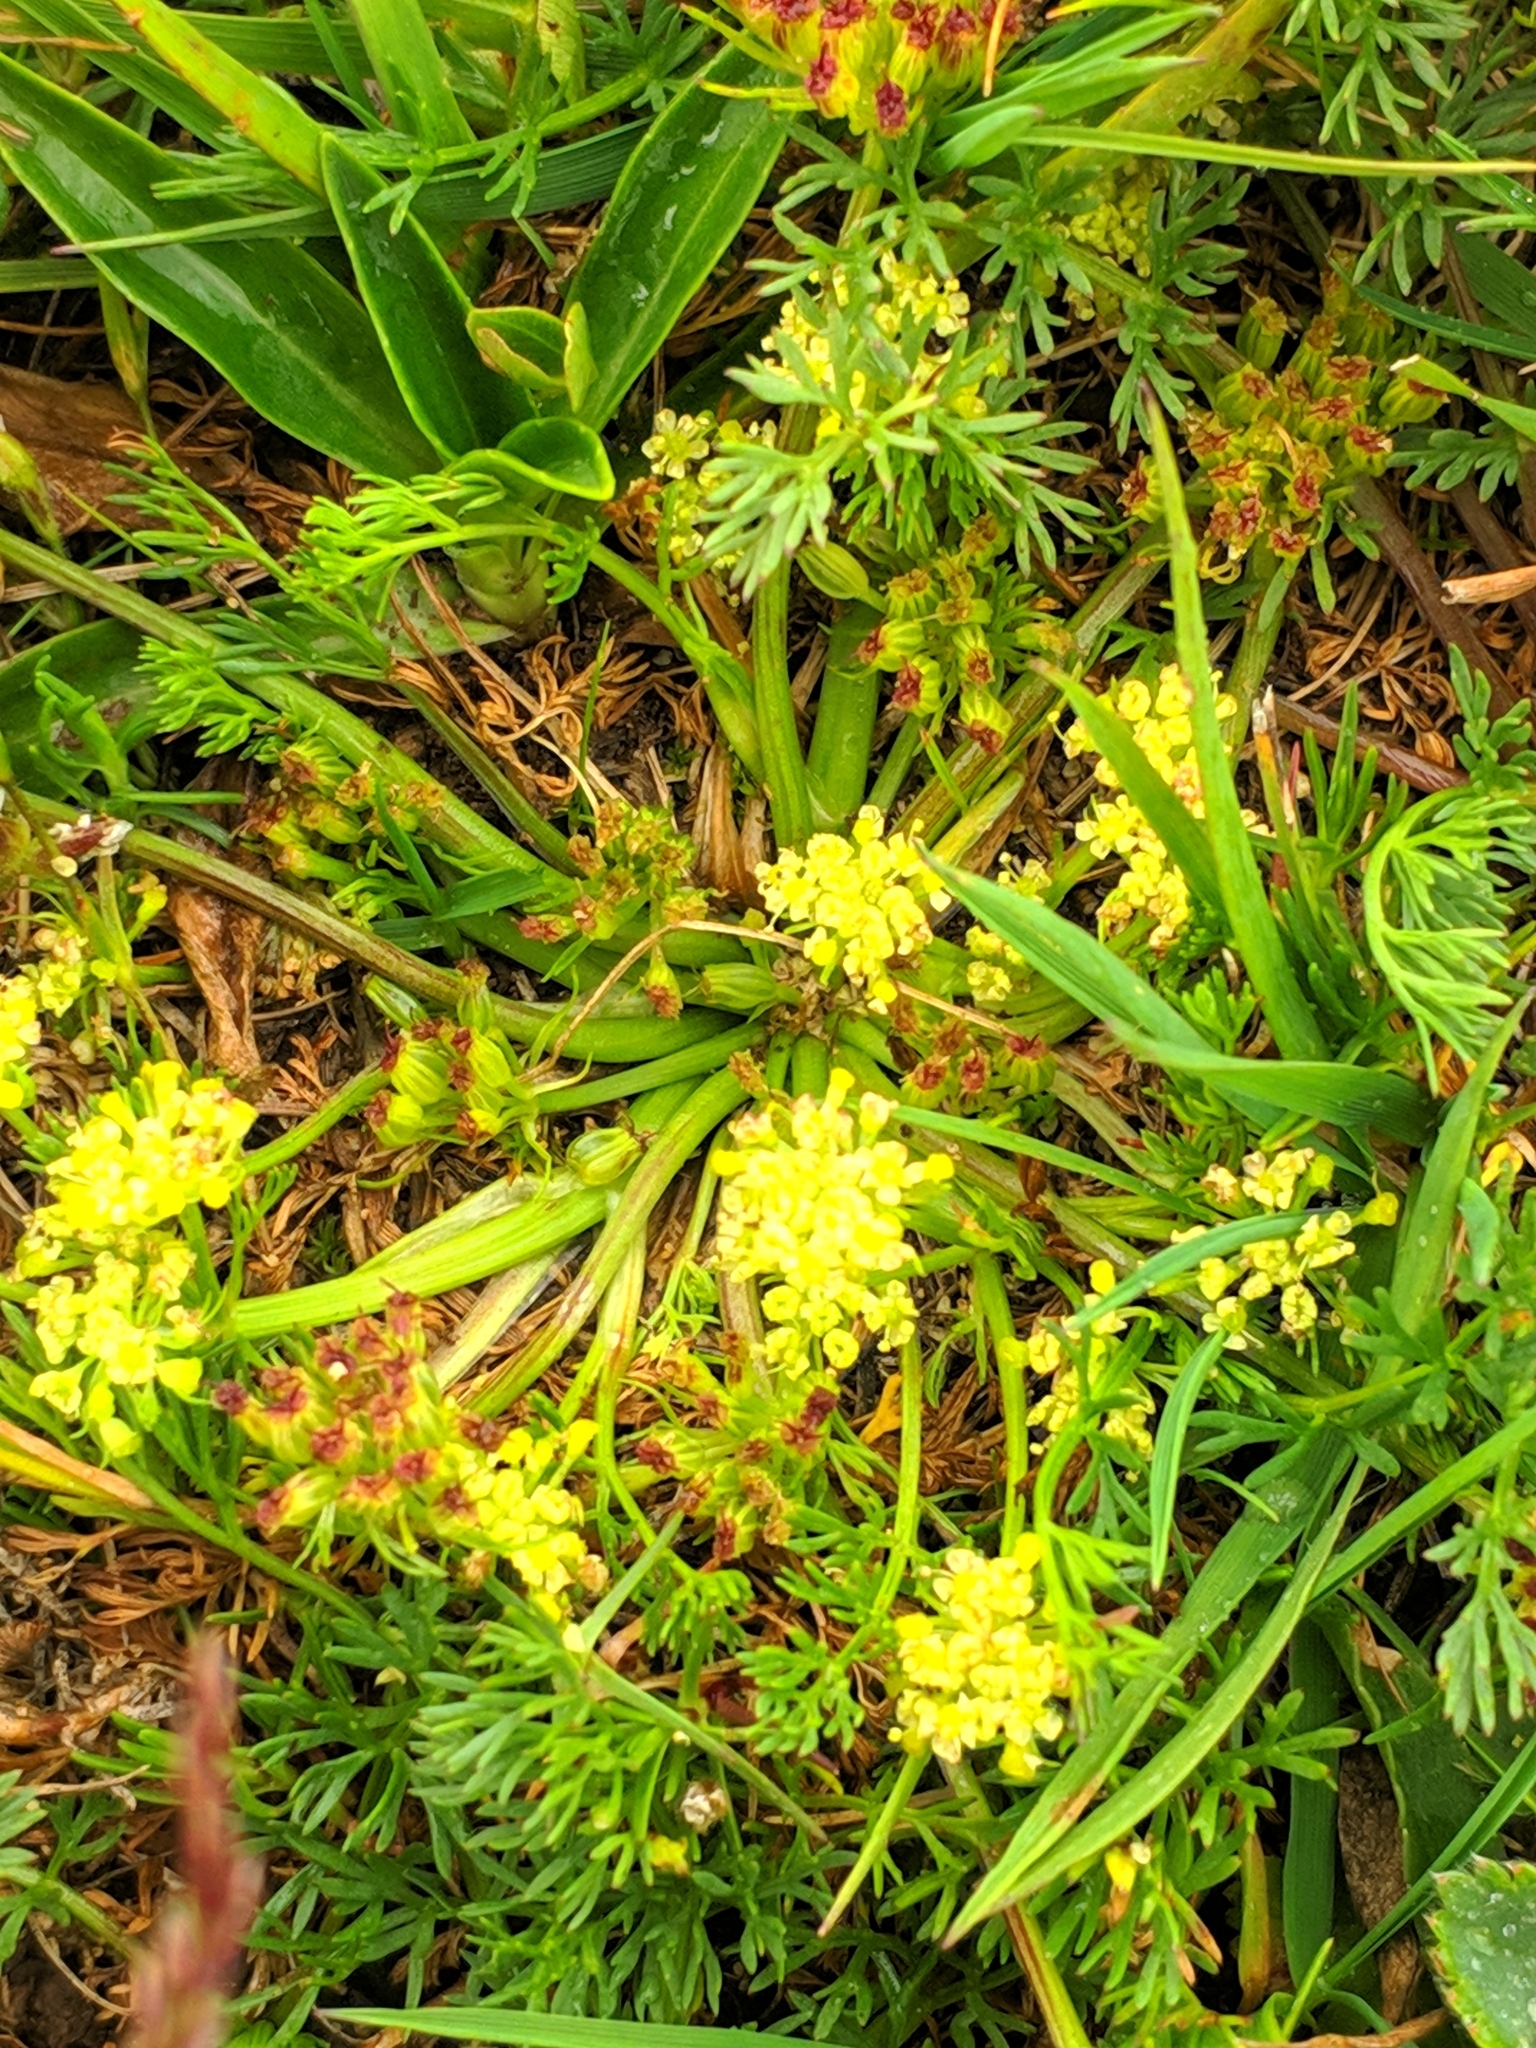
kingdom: Plantae
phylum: Tracheophyta
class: Magnoliopsida
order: Apiales
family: Apiaceae
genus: Chamaesciadium
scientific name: Chamaesciadium acaule
